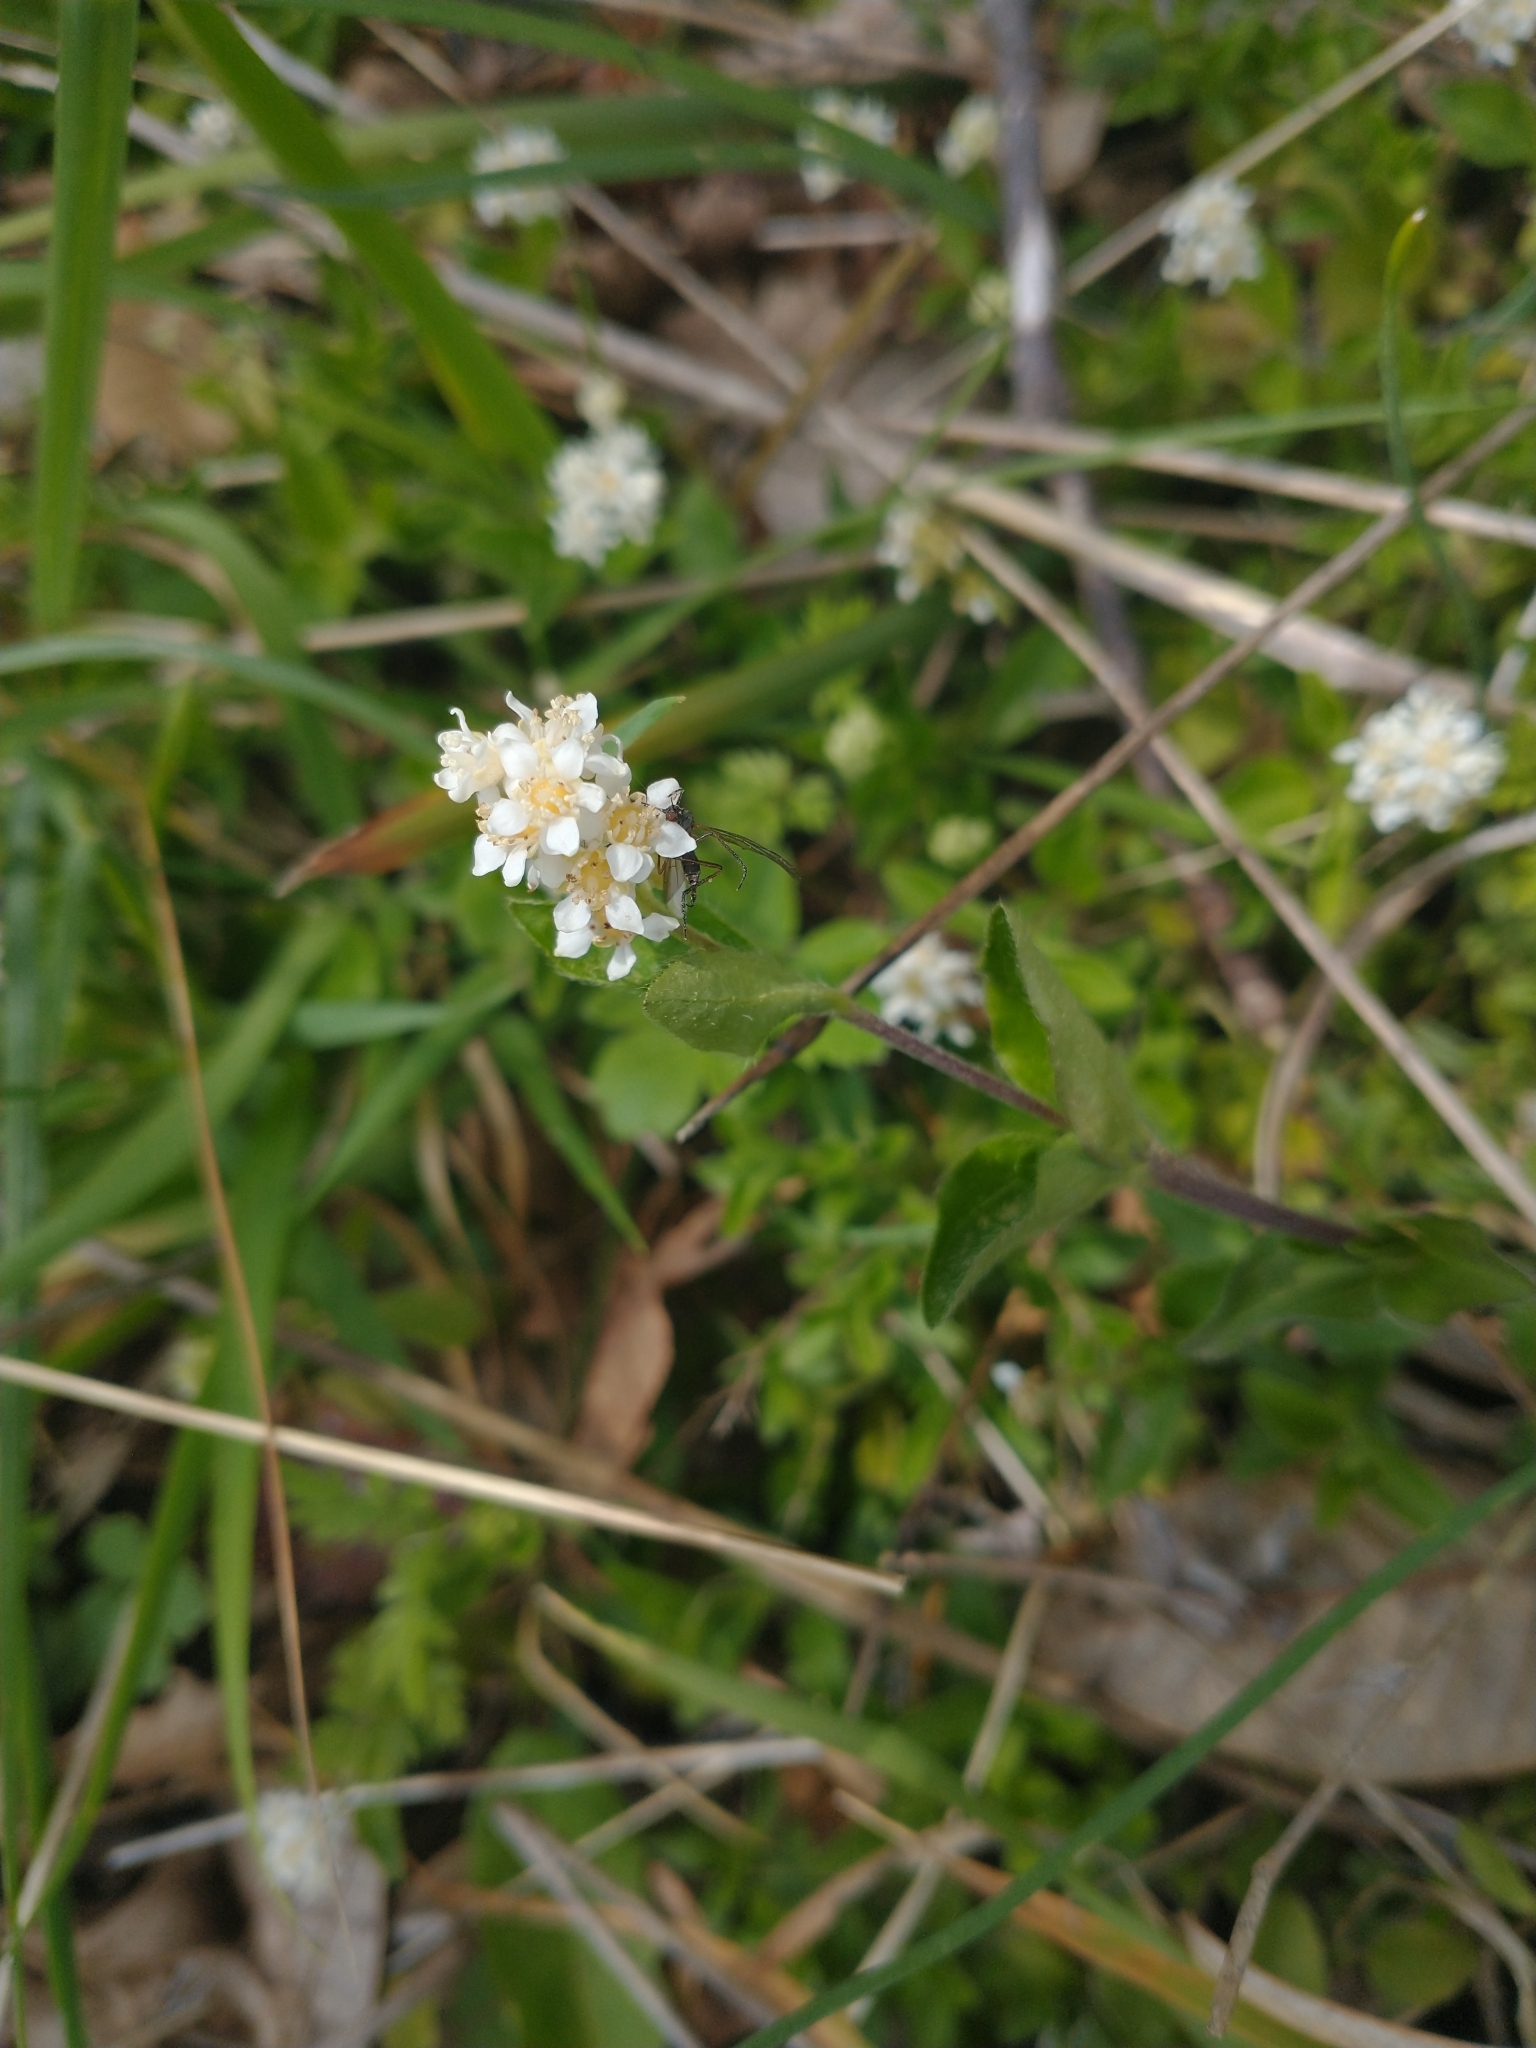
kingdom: Plantae
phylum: Tracheophyta
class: Magnoliopsida
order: Cornales
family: Hydrangeaceae
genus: Whipplea
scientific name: Whipplea modesta
